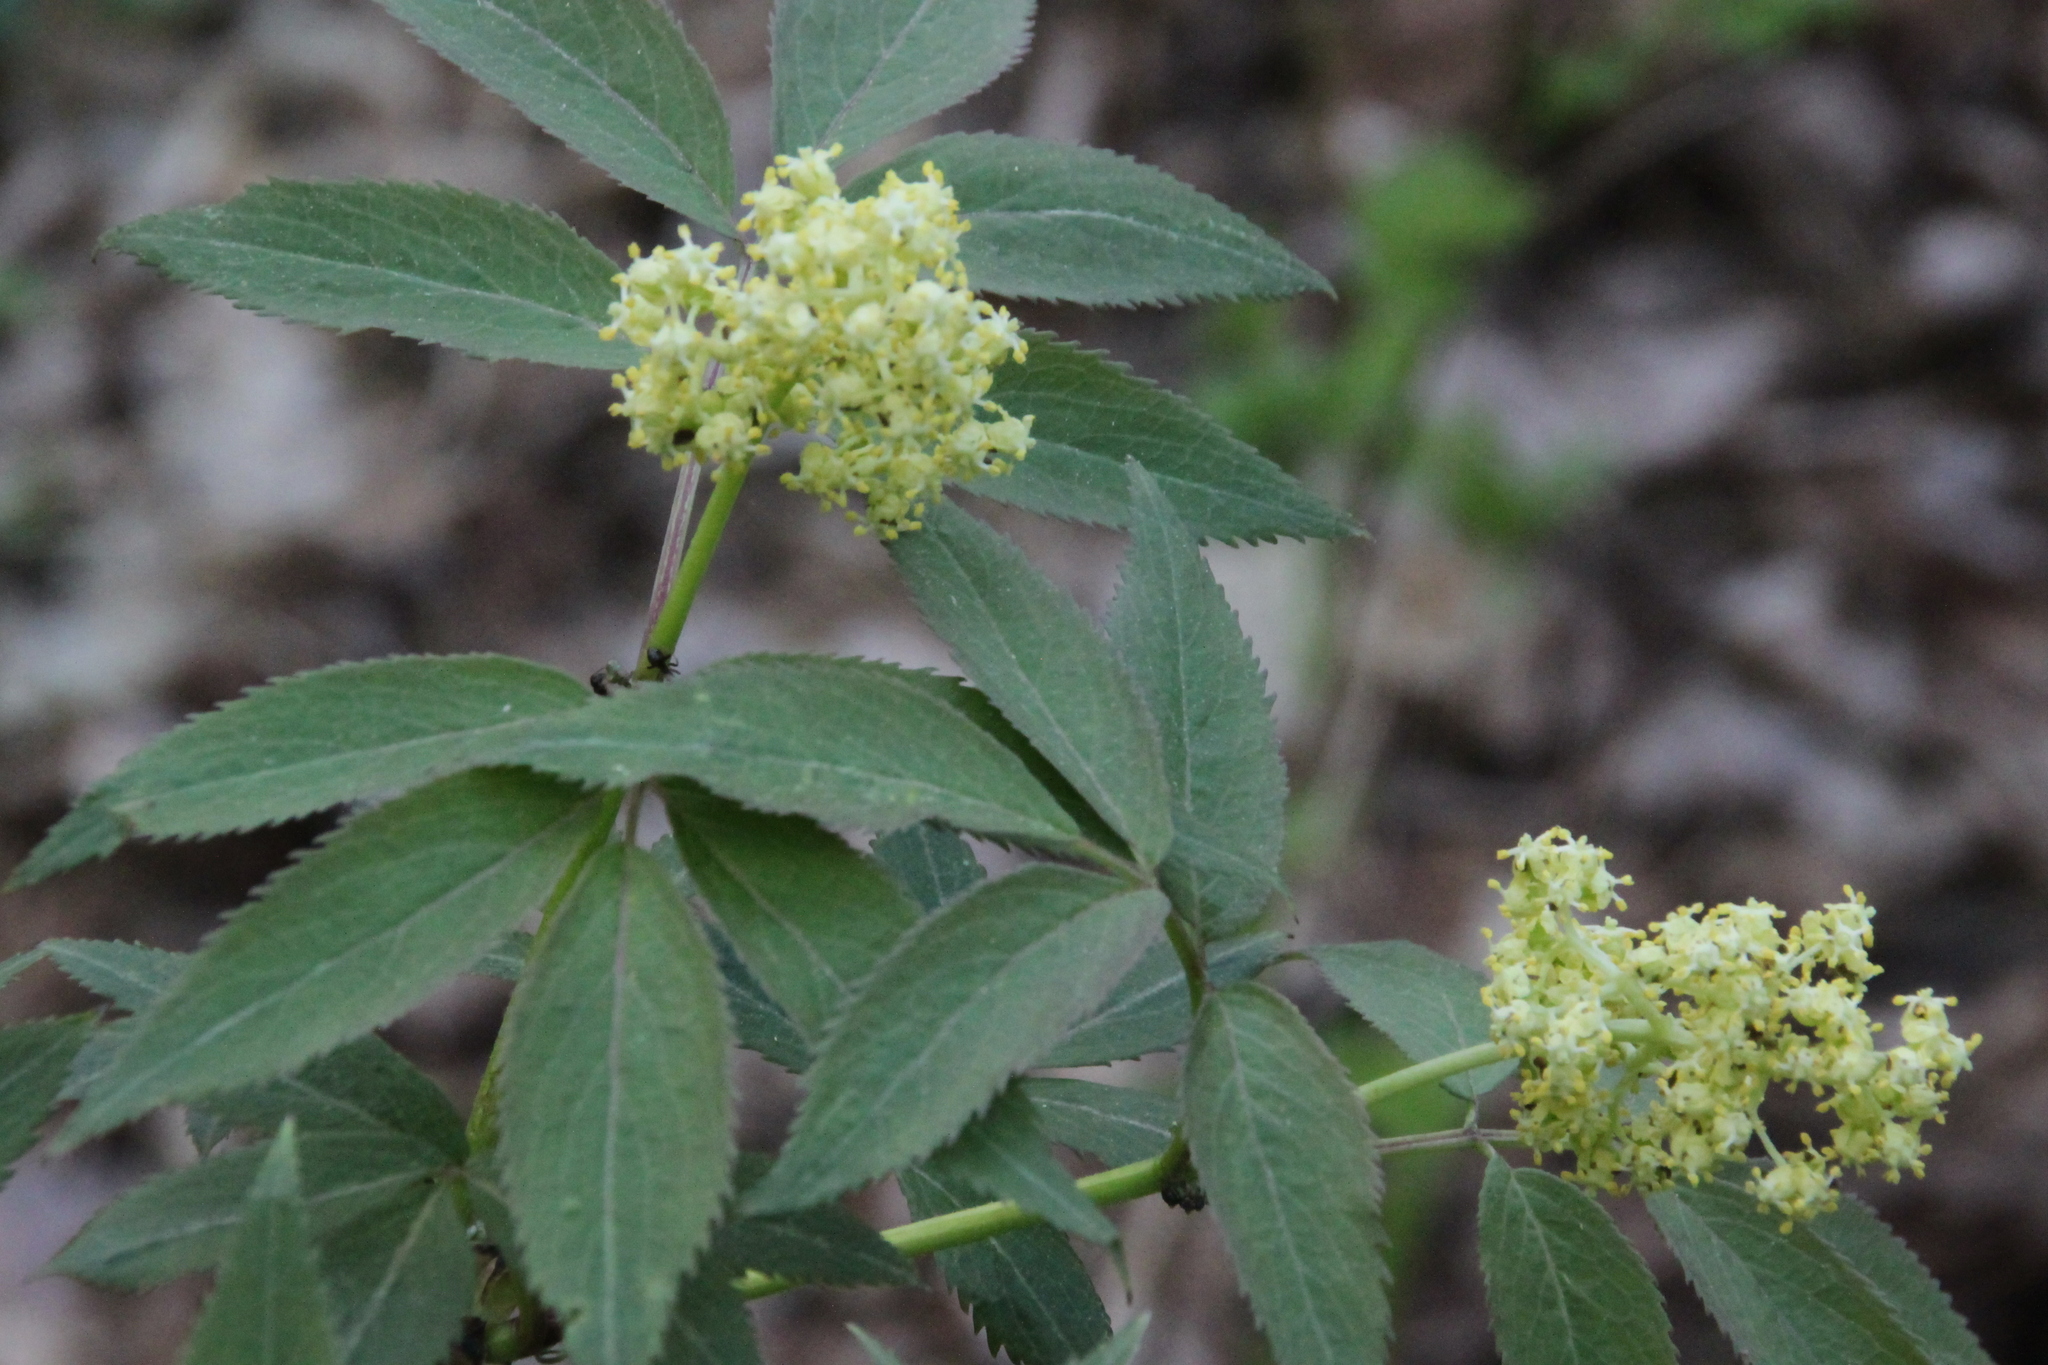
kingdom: Plantae
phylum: Tracheophyta
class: Magnoliopsida
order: Dipsacales
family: Viburnaceae
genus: Sambucus
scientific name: Sambucus racemosa
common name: Red-berried elder
